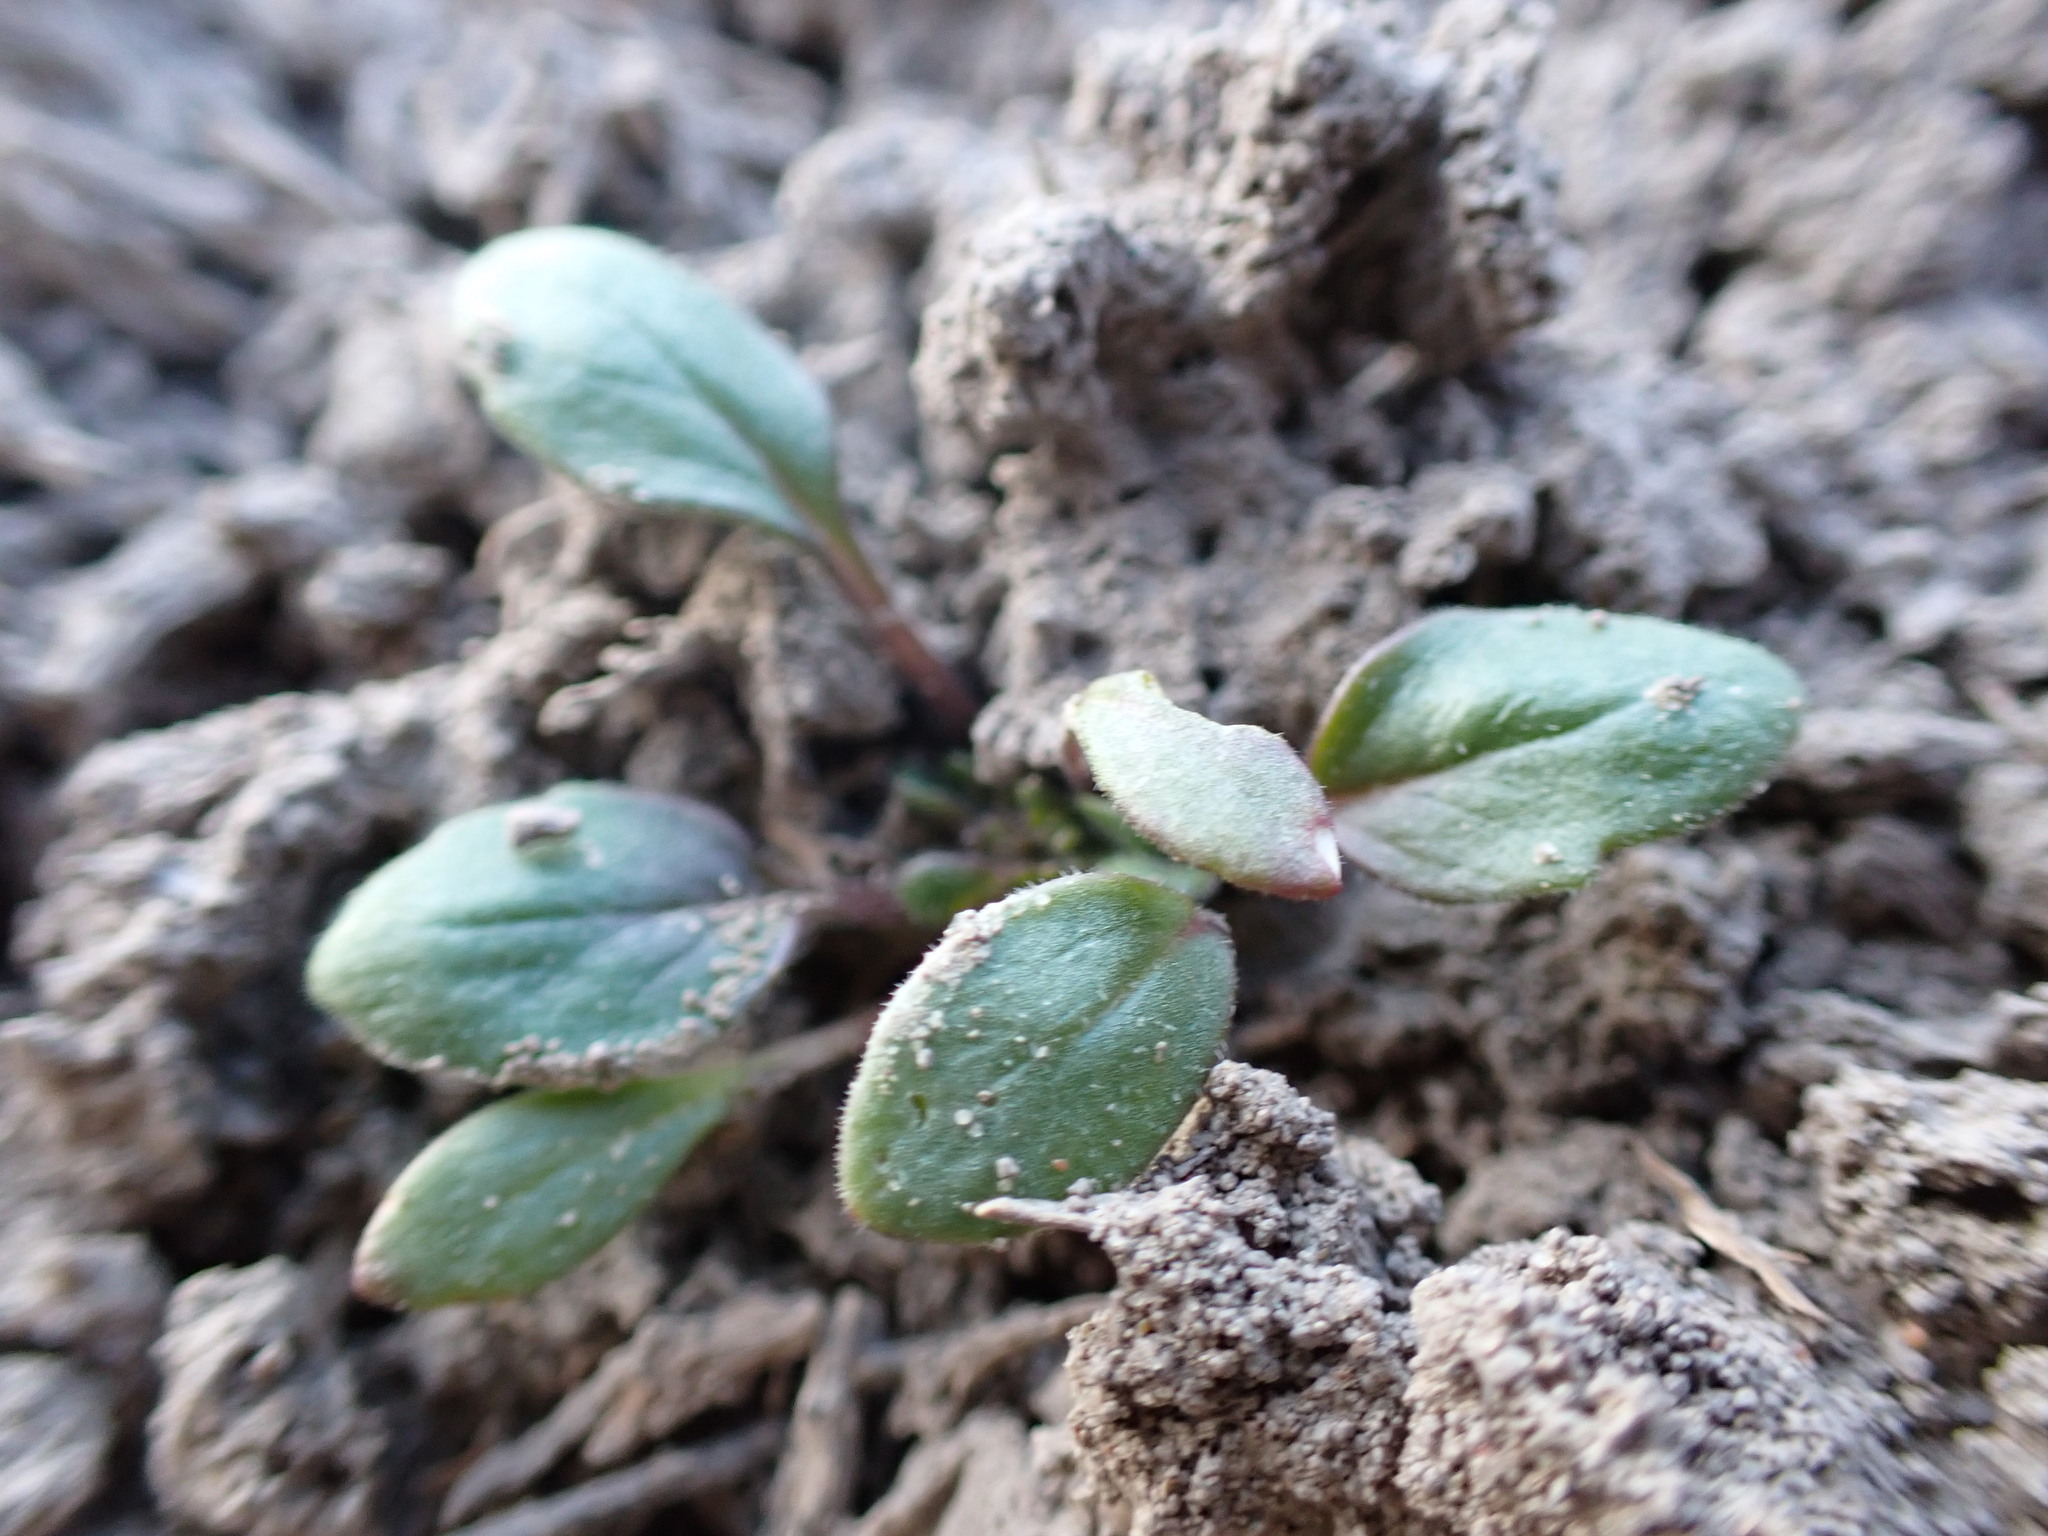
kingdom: Plantae
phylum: Tracheophyta
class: Magnoliopsida
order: Boraginales
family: Hydrophyllaceae
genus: Phacelia
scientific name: Phacelia scopulina
